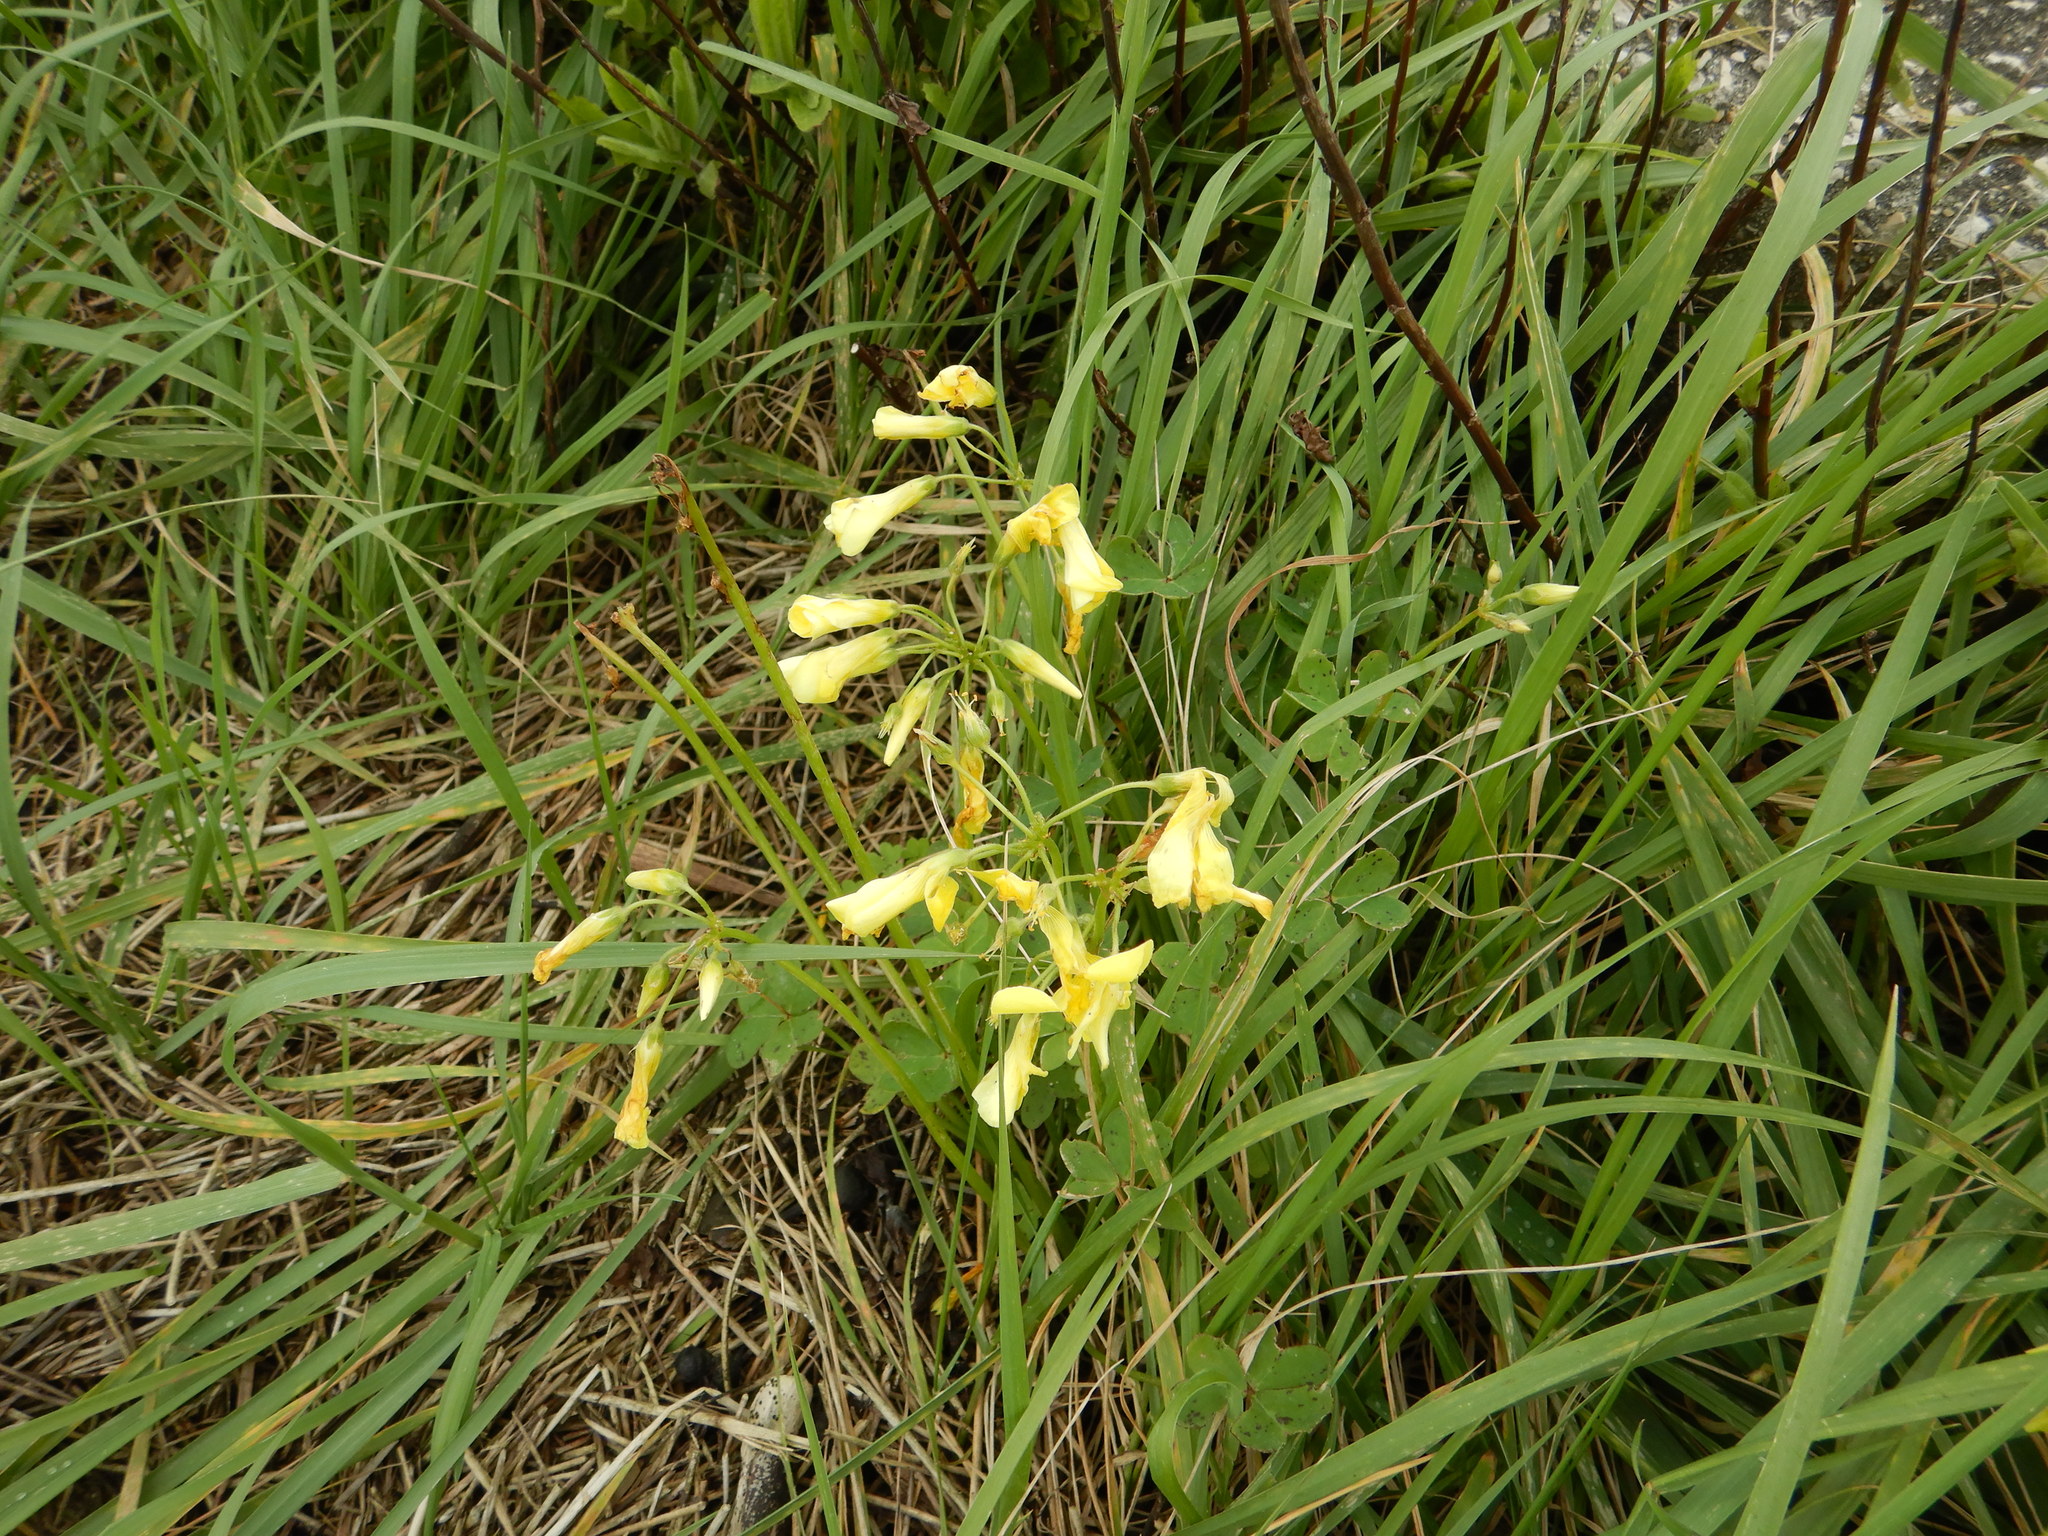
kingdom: Plantae
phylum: Tracheophyta
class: Magnoliopsida
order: Oxalidales
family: Oxalidaceae
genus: Oxalis
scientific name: Oxalis pes-caprae
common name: Bermuda-buttercup
